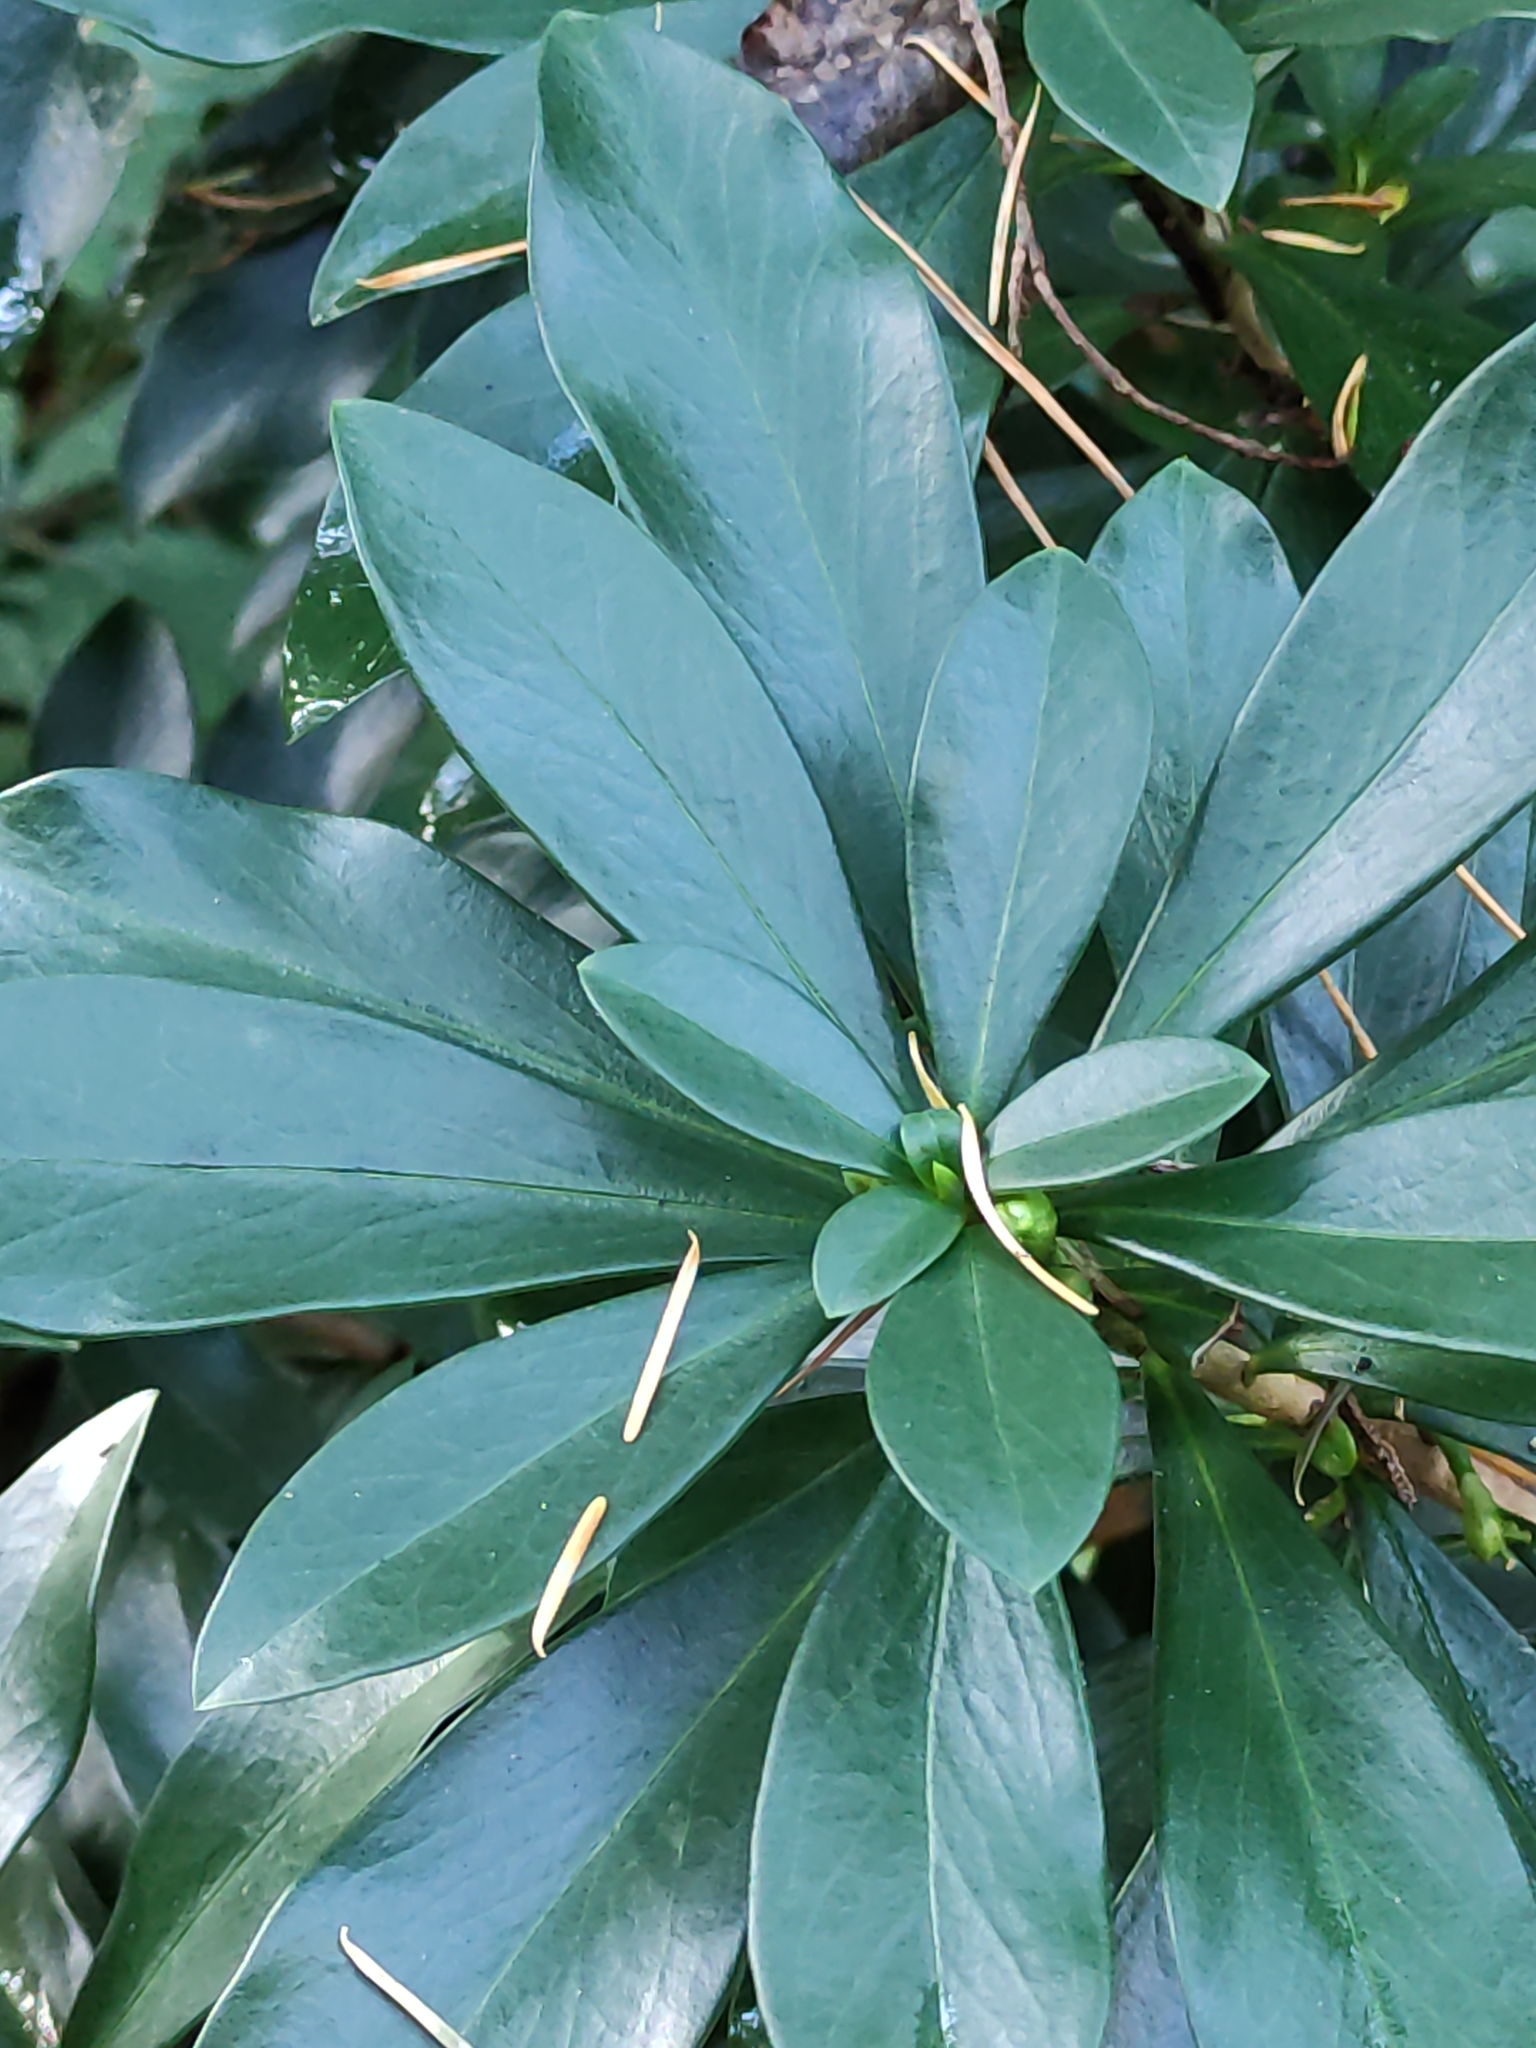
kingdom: Plantae
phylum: Tracheophyta
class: Magnoliopsida
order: Malvales
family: Thymelaeaceae
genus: Daphne
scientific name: Daphne laureola
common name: Spurge-laurel
